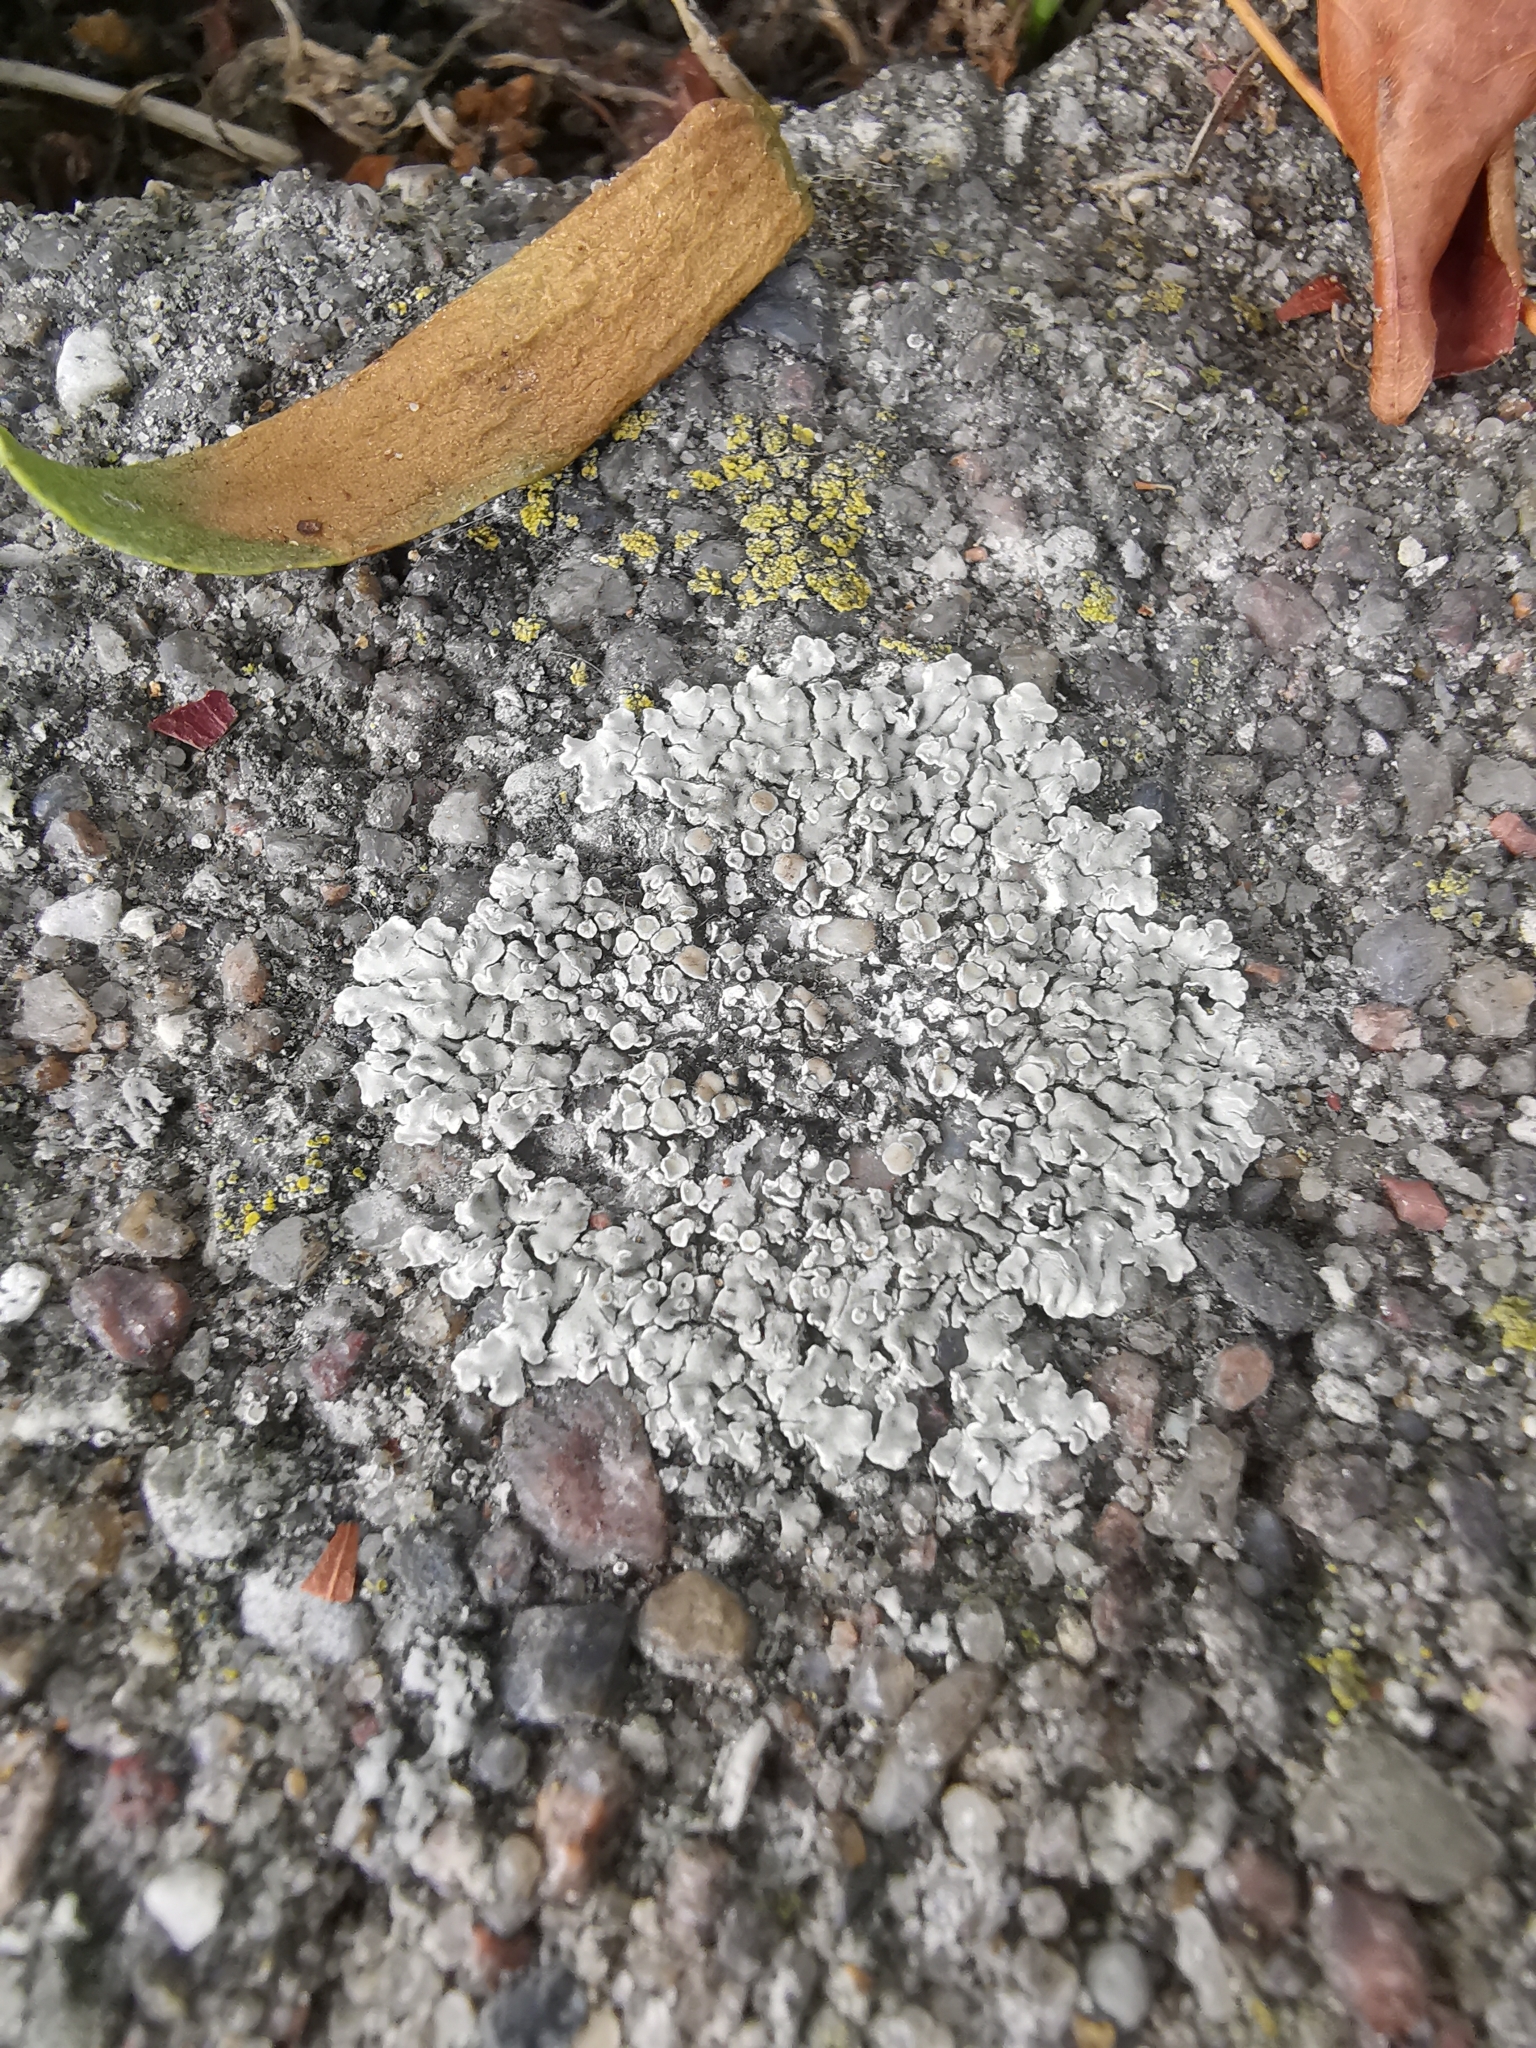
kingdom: Fungi
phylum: Ascomycota
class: Lecanoromycetes
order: Lecanorales
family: Lecanoraceae
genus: Protoparmeliopsis
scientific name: Protoparmeliopsis muralis
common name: Stonewall rim lichen
